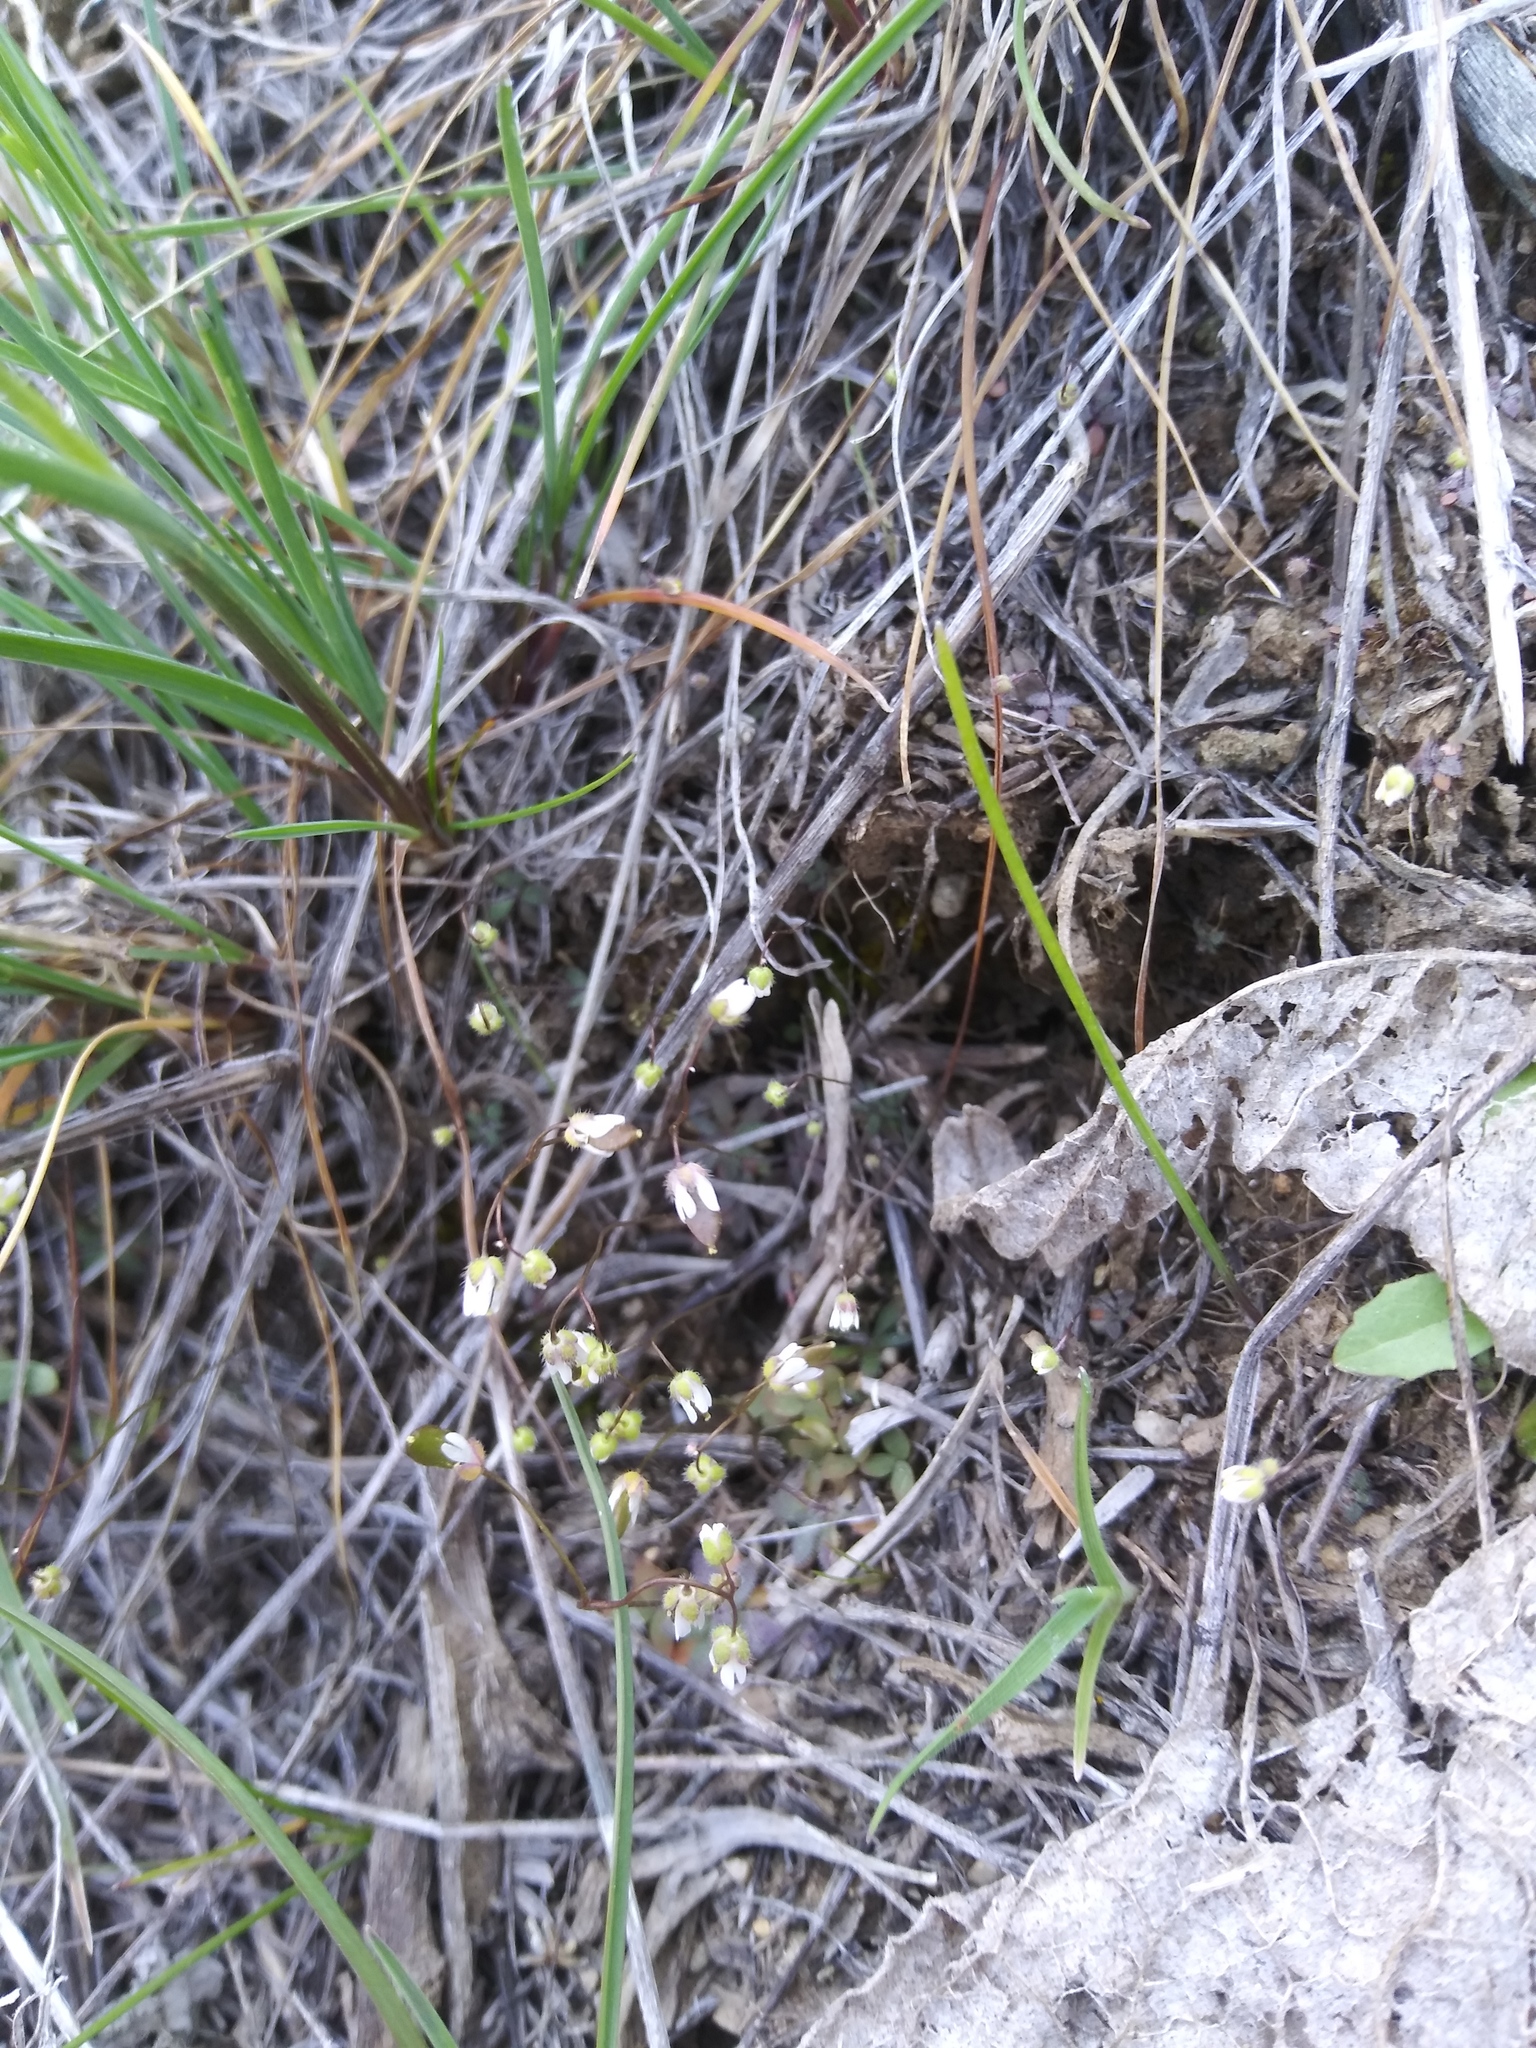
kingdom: Plantae
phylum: Tracheophyta
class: Magnoliopsida
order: Brassicales
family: Brassicaceae
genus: Draba
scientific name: Draba verna
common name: Spring draba
